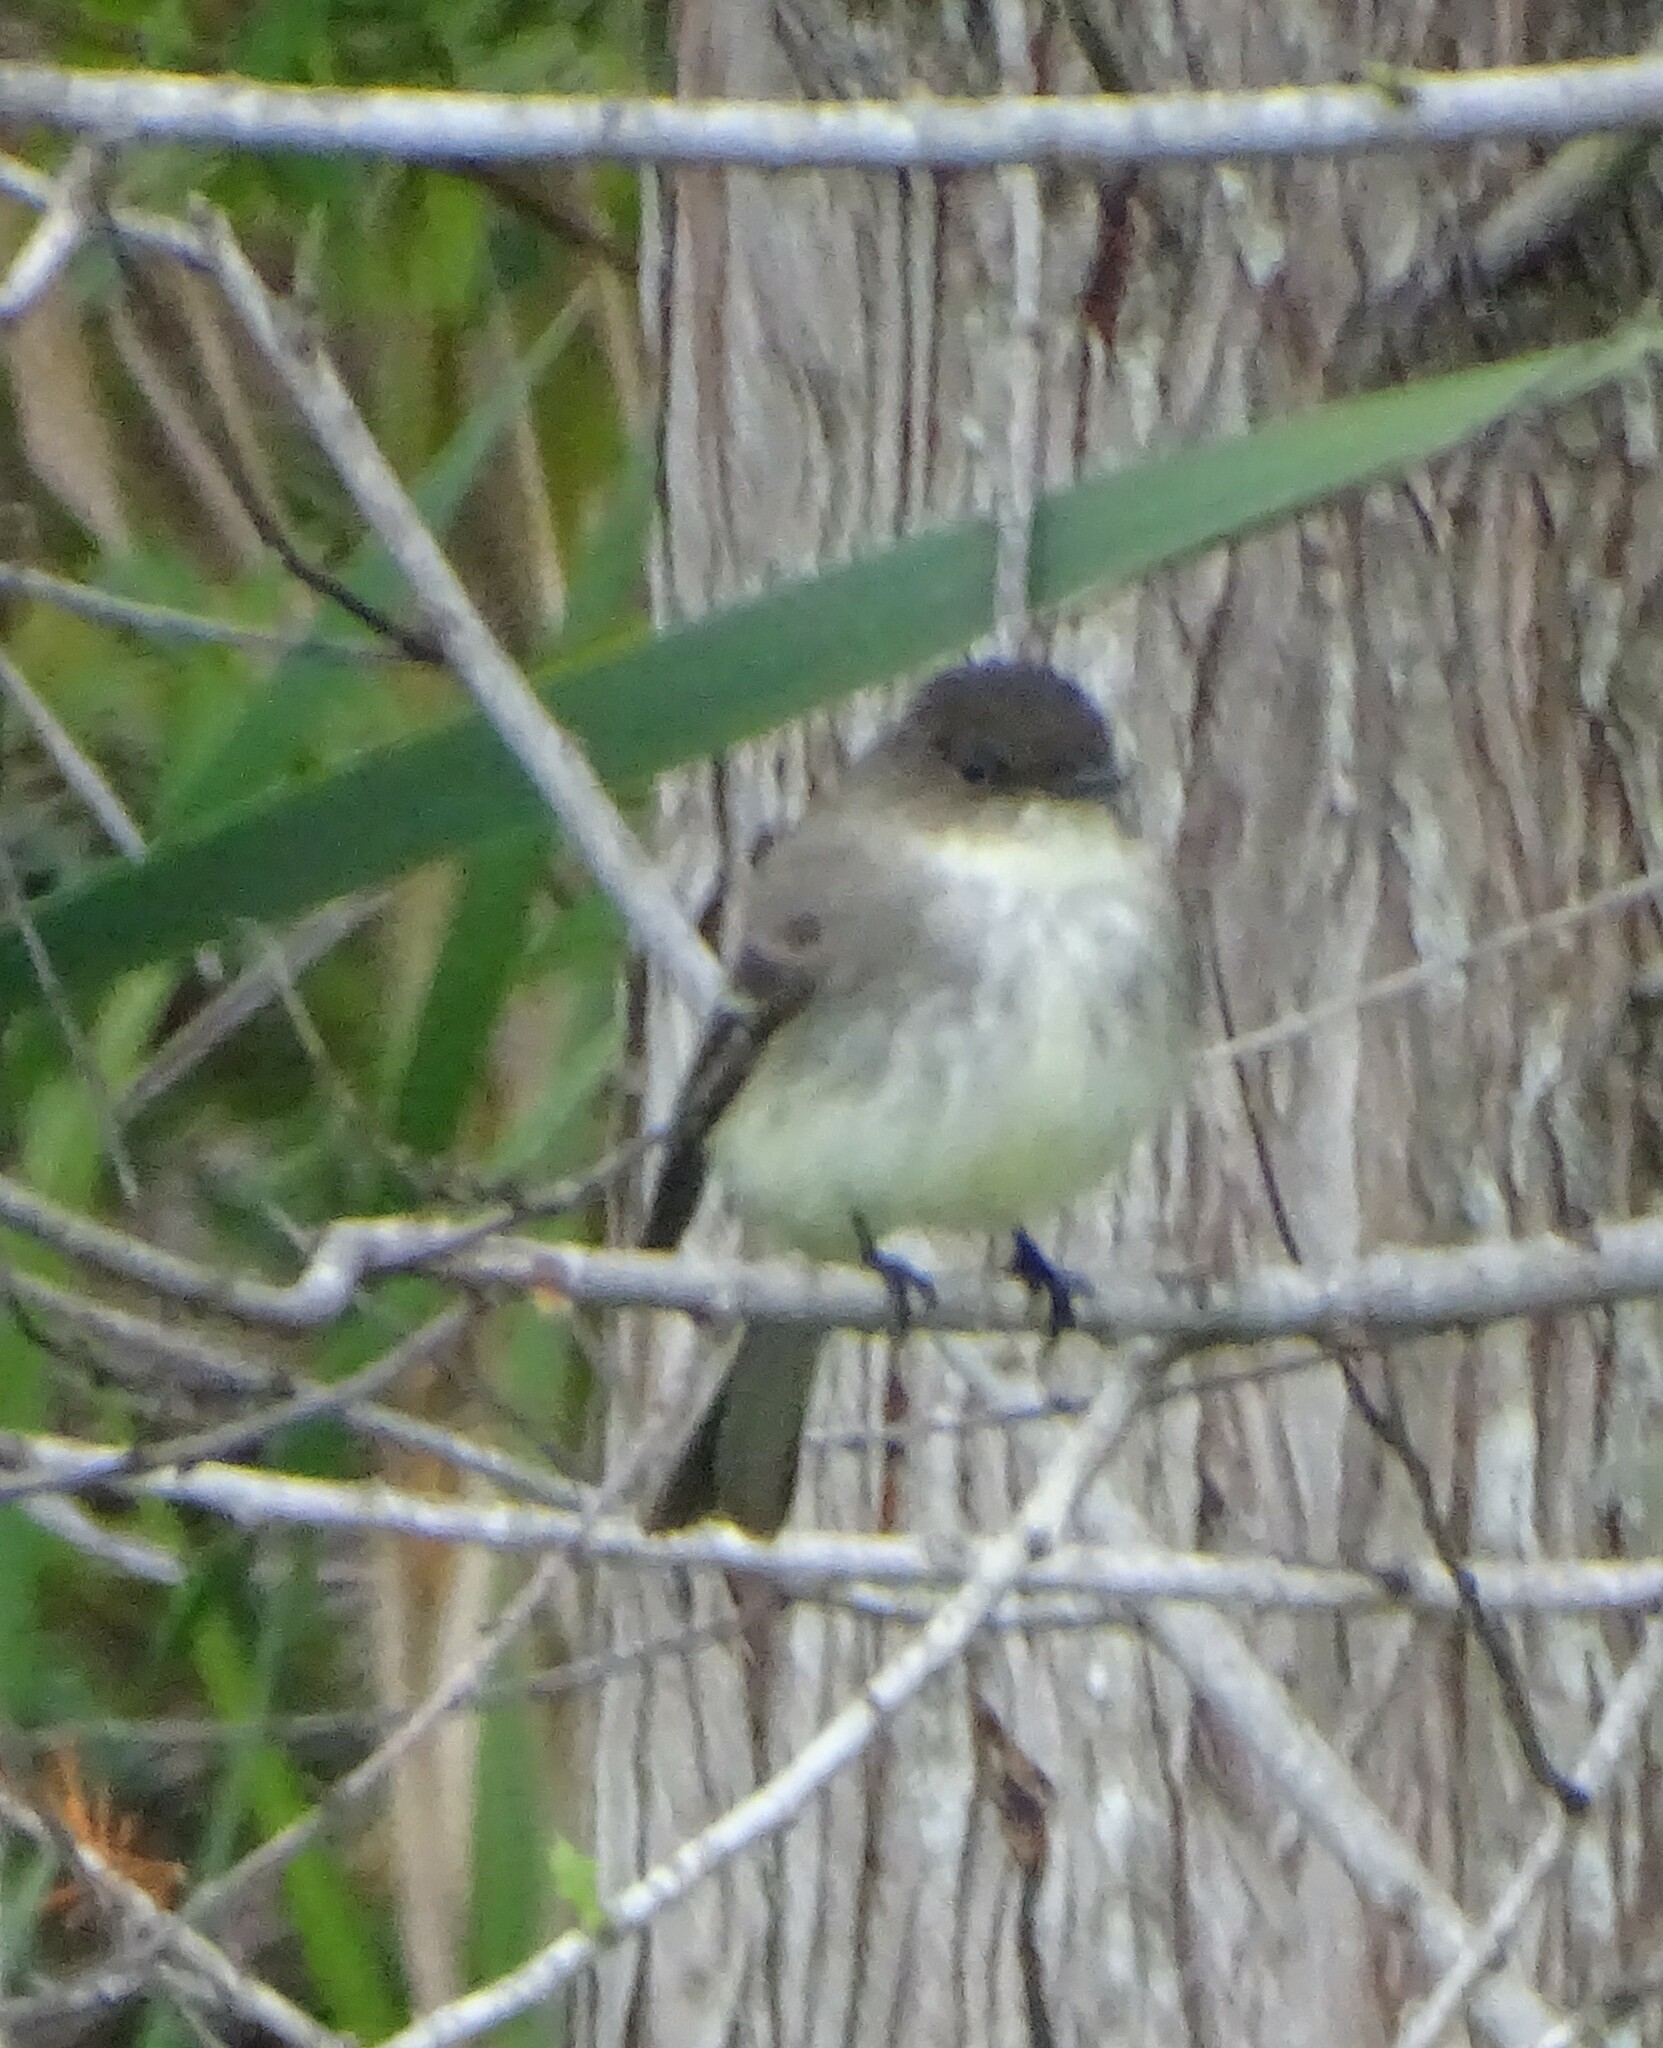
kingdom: Animalia
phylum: Chordata
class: Aves
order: Passeriformes
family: Tyrannidae
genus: Sayornis
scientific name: Sayornis phoebe
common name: Eastern phoebe
